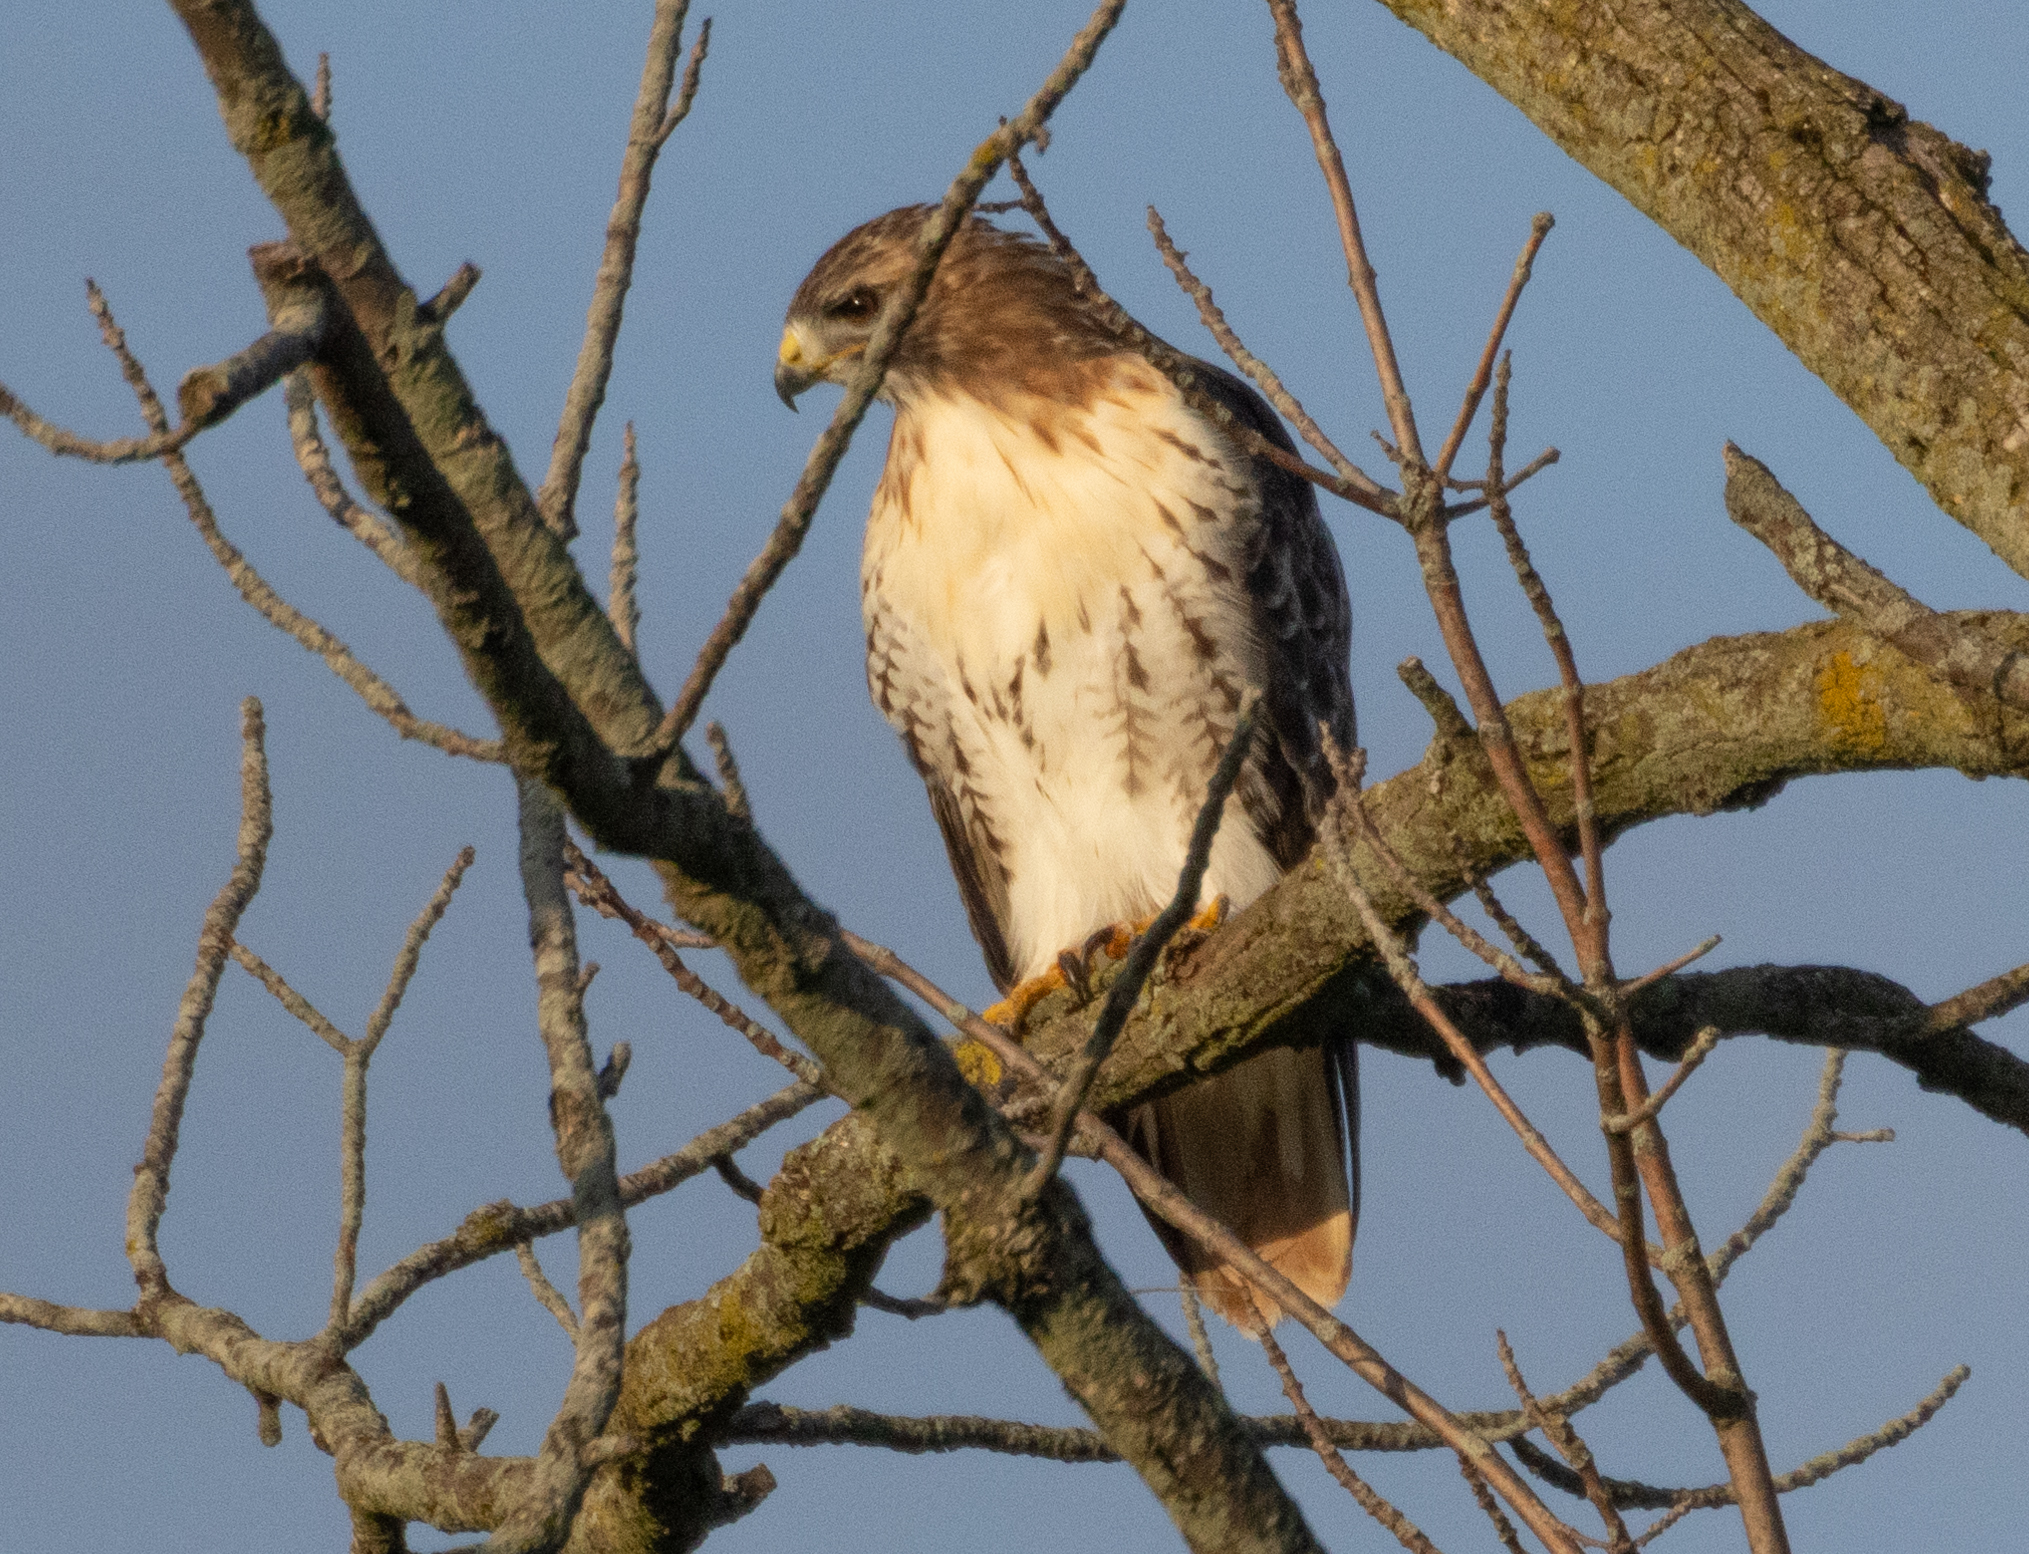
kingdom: Animalia
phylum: Chordata
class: Aves
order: Accipitriformes
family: Accipitridae
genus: Buteo
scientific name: Buteo jamaicensis
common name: Red-tailed hawk
